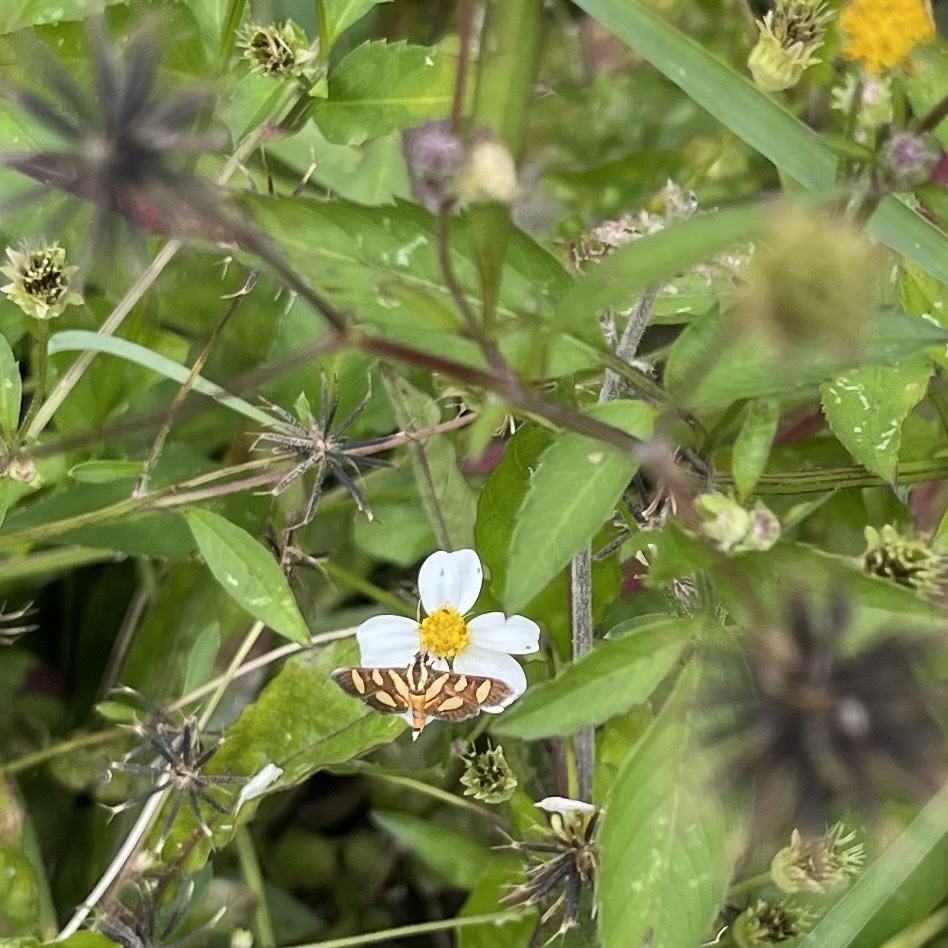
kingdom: Animalia
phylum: Arthropoda
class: Insecta
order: Lepidoptera
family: Crambidae
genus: Syngamia
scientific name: Syngamia florella
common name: Orange-spotted flower moth
